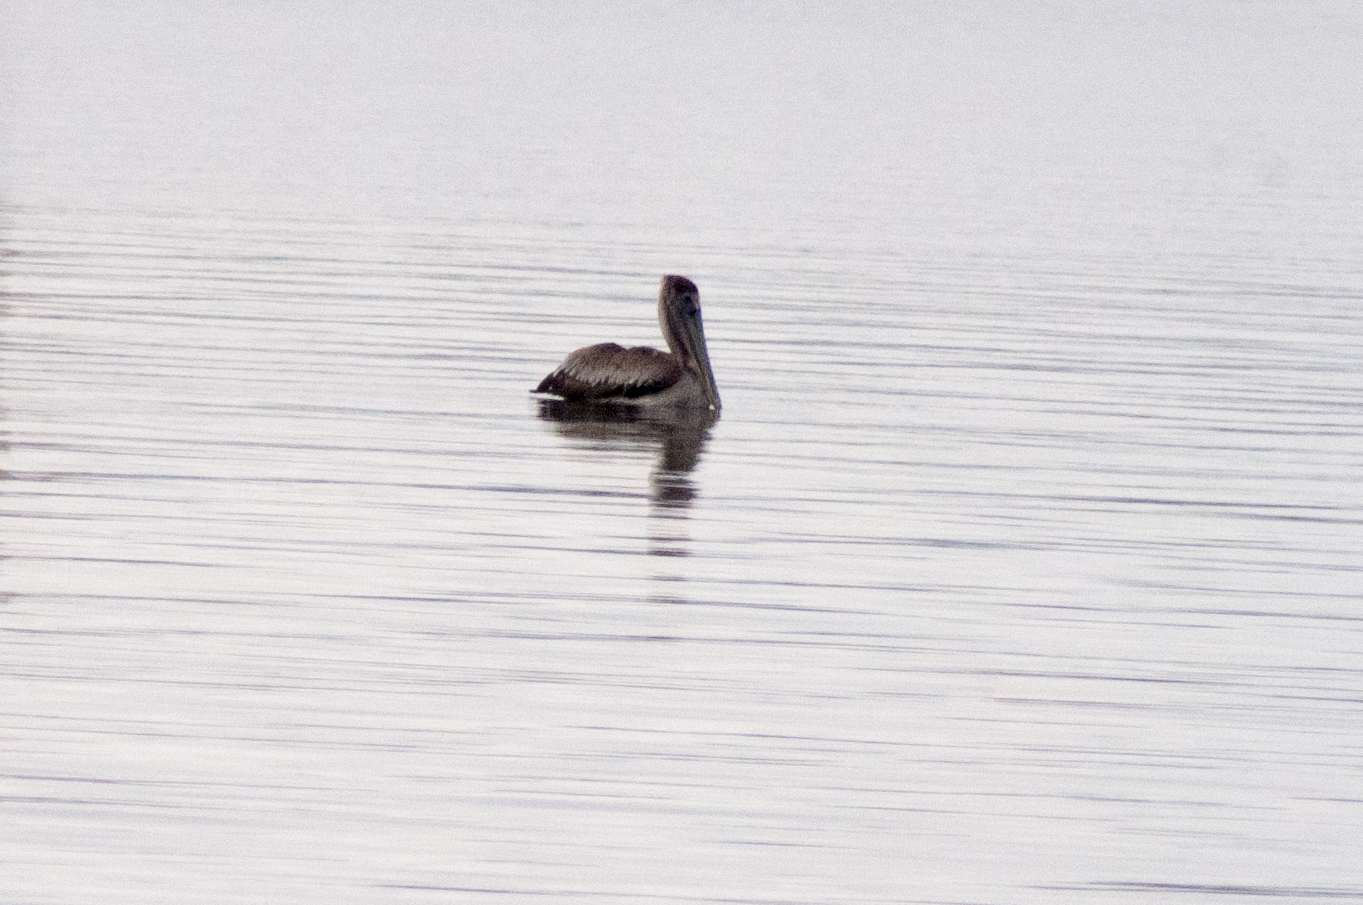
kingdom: Animalia
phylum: Chordata
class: Aves
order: Pelecaniformes
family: Pelecanidae
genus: Pelecanus
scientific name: Pelecanus occidentalis
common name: Brown pelican
